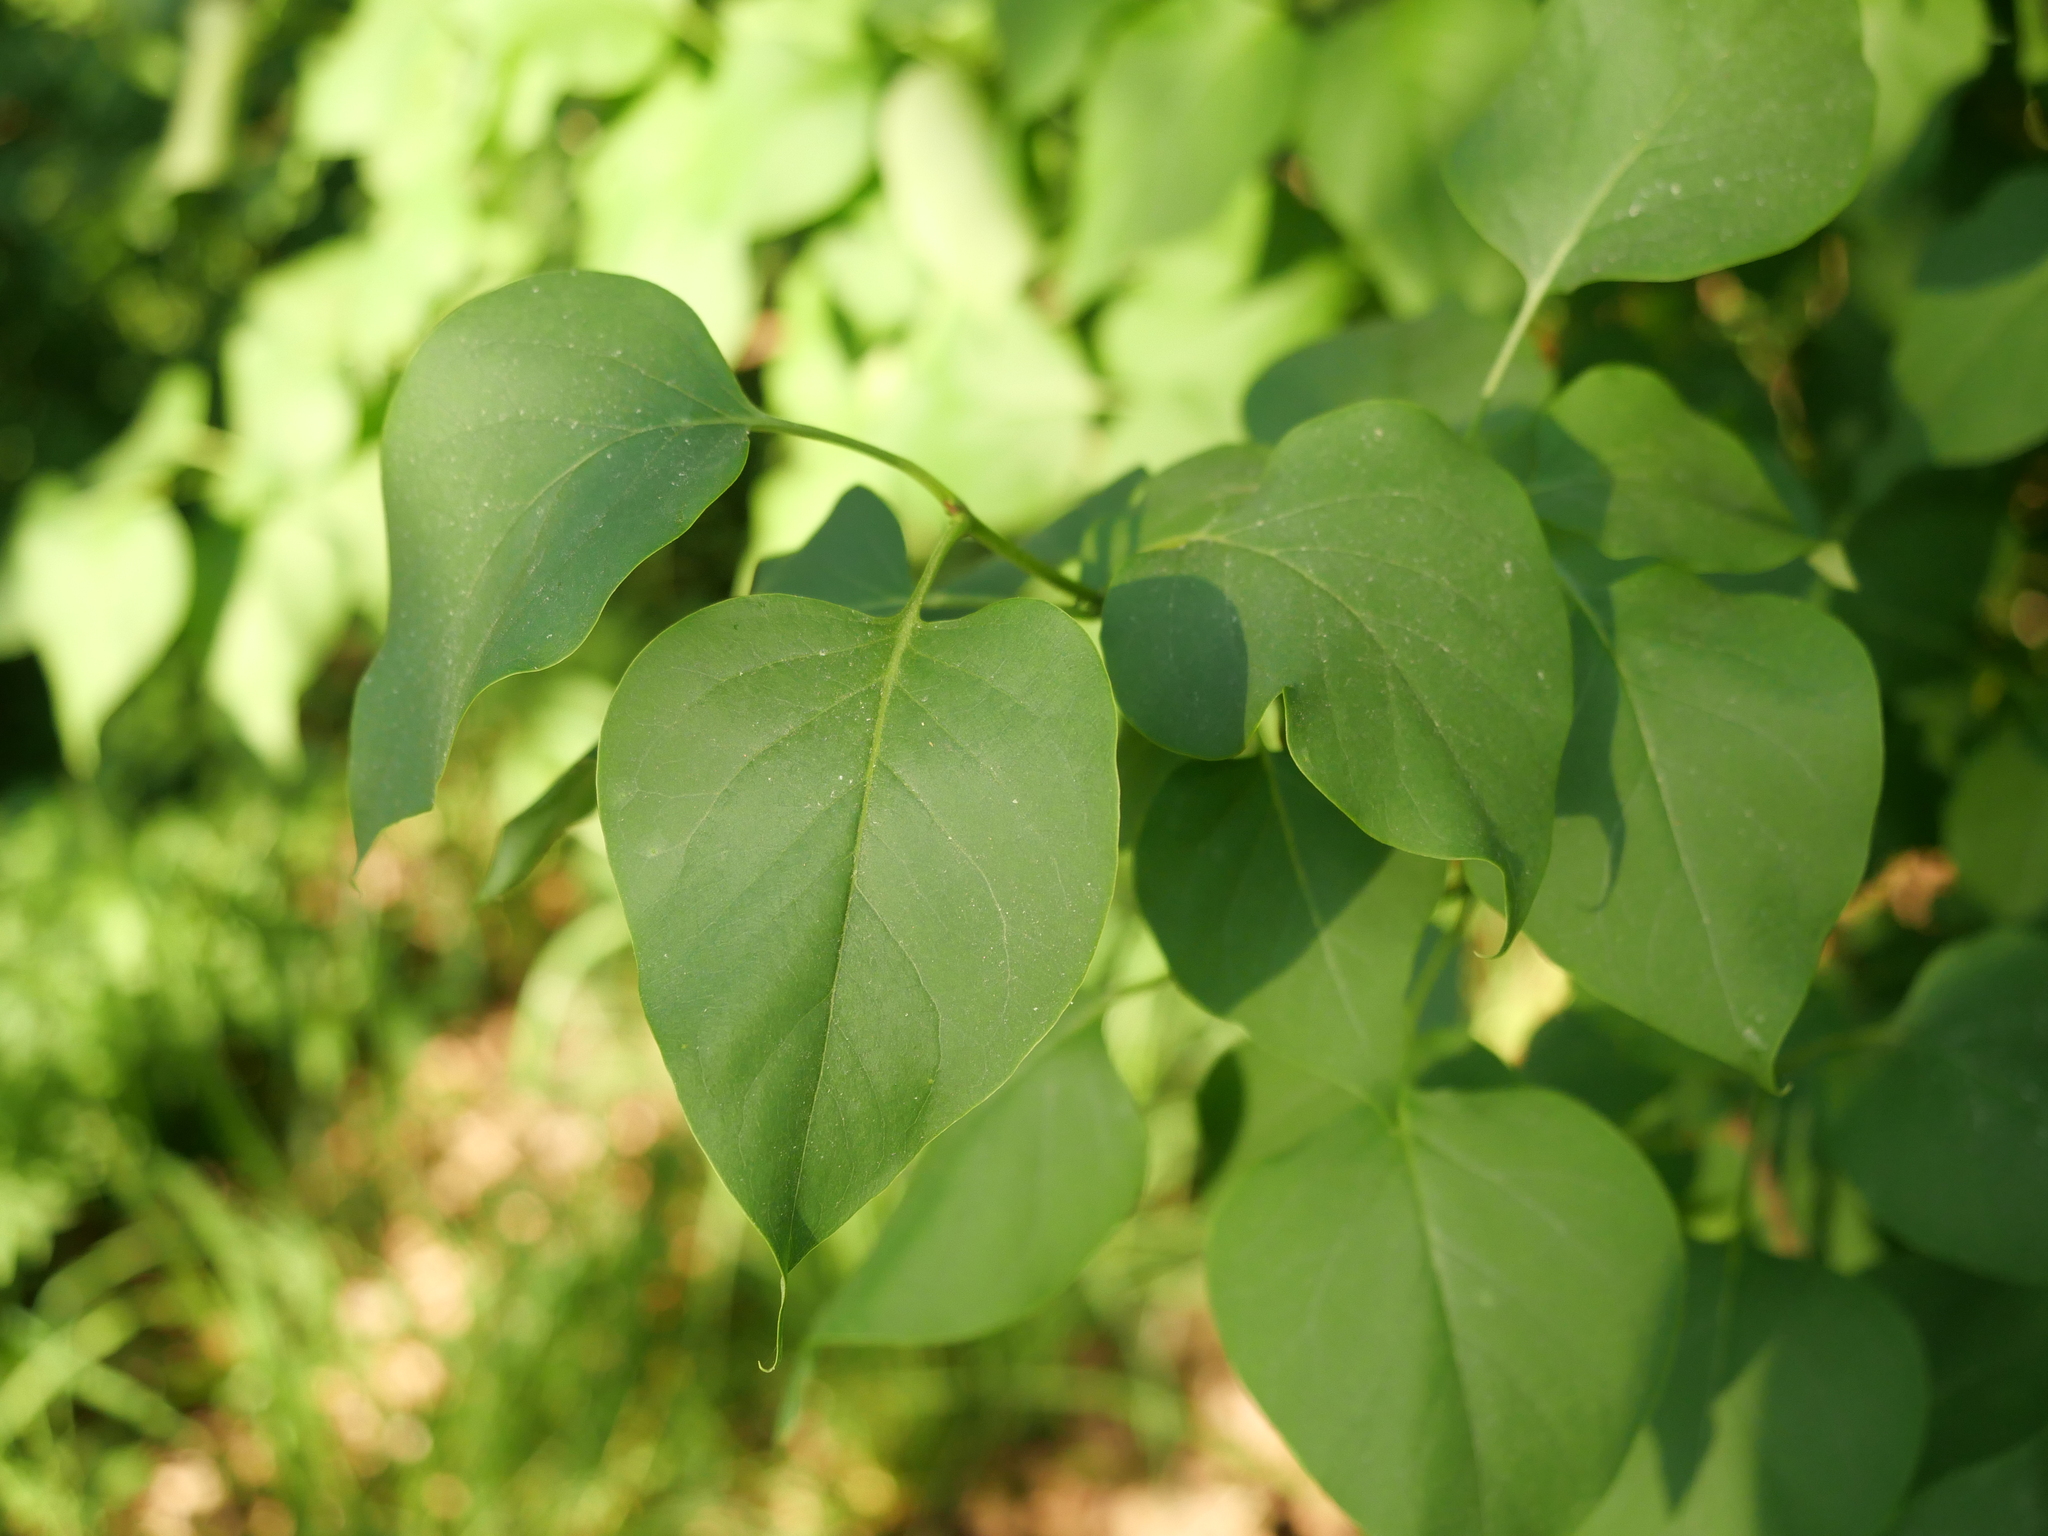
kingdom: Plantae
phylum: Tracheophyta
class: Magnoliopsida
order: Lamiales
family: Oleaceae
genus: Syringa
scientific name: Syringa vulgaris
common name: Common lilac
